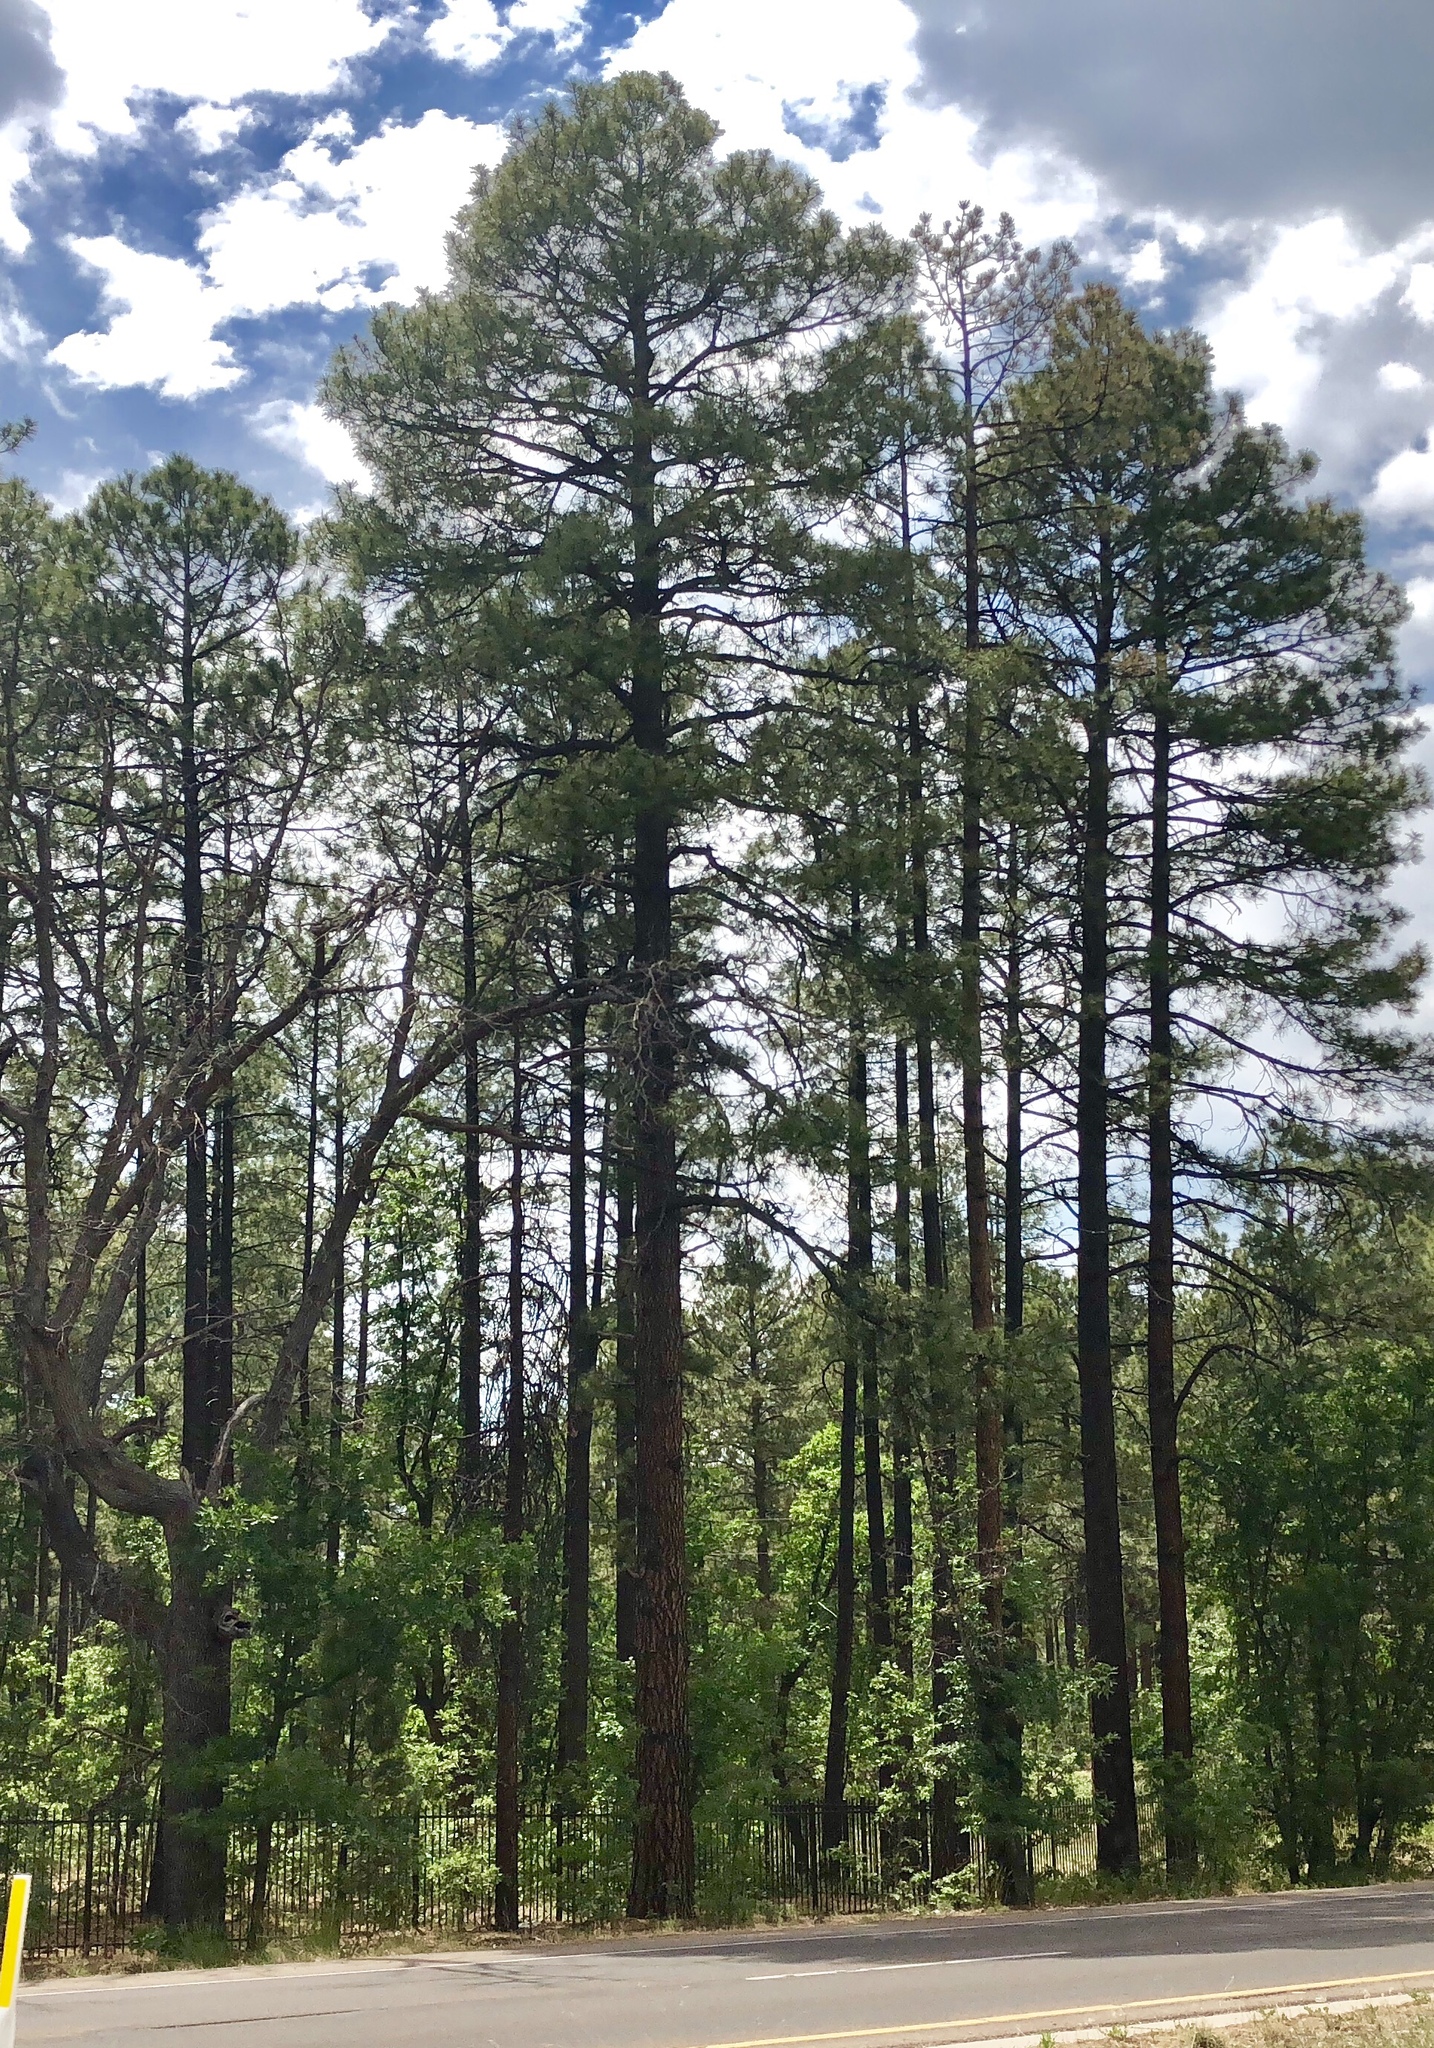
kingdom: Plantae
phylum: Tracheophyta
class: Pinopsida
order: Pinales
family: Pinaceae
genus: Pinus
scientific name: Pinus ponderosa
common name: Western yellow-pine
